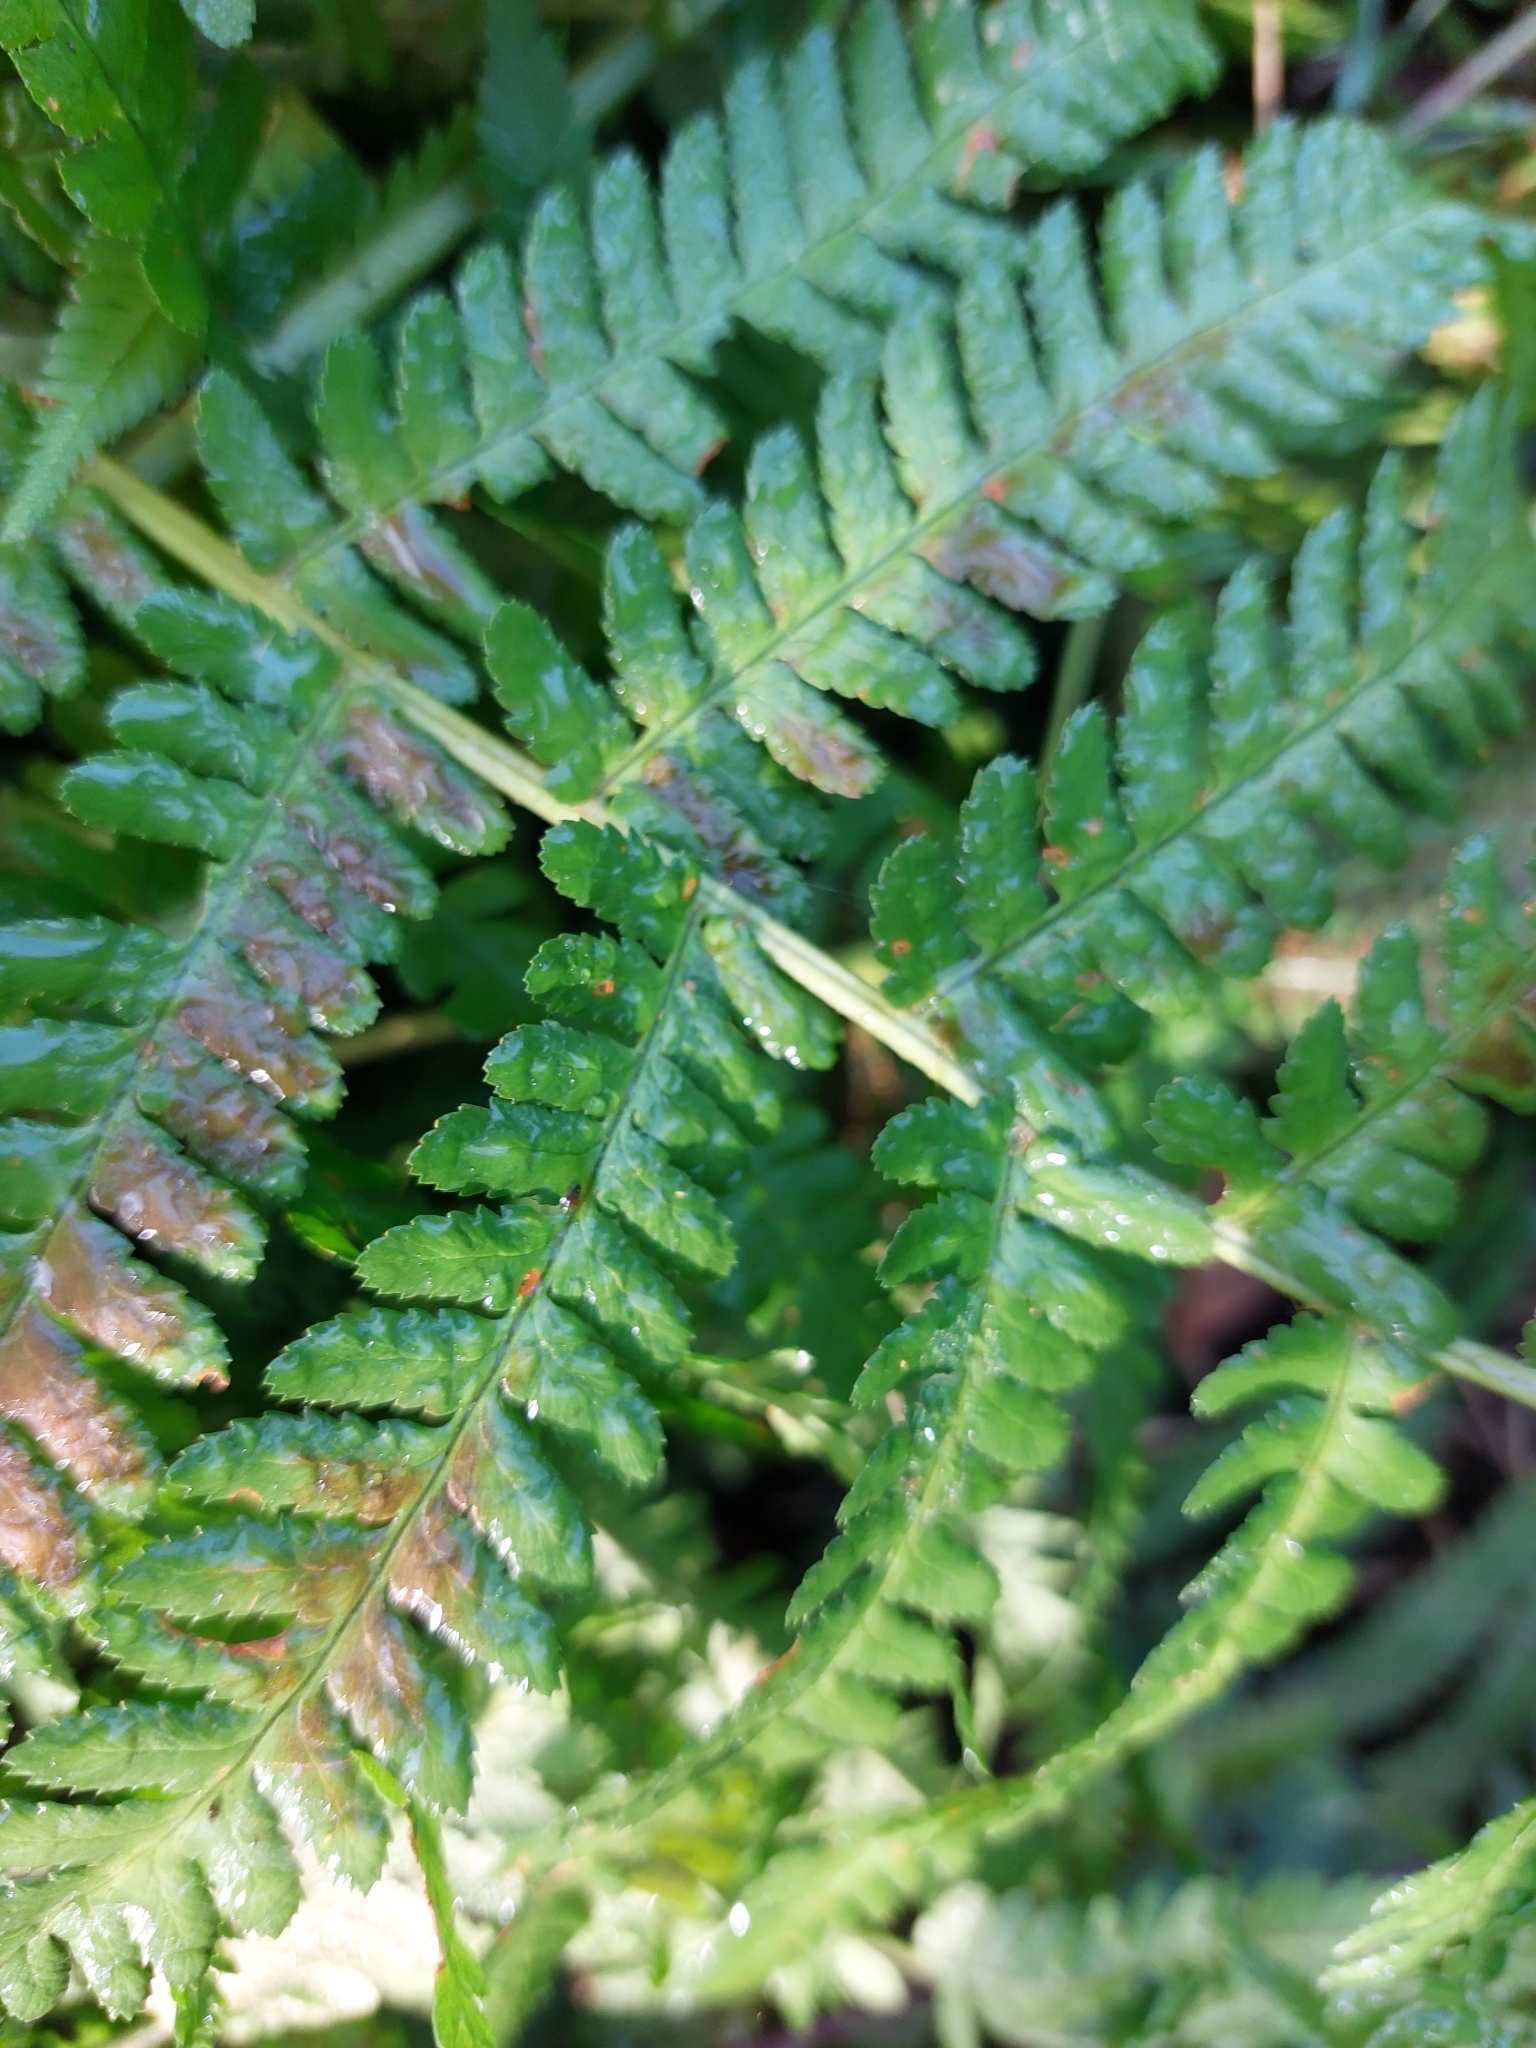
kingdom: Plantae
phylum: Tracheophyta
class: Polypodiopsida
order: Polypodiales
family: Dryopteridaceae
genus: Dryopteris
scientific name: Dryopteris filix-mas
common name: Male fern
